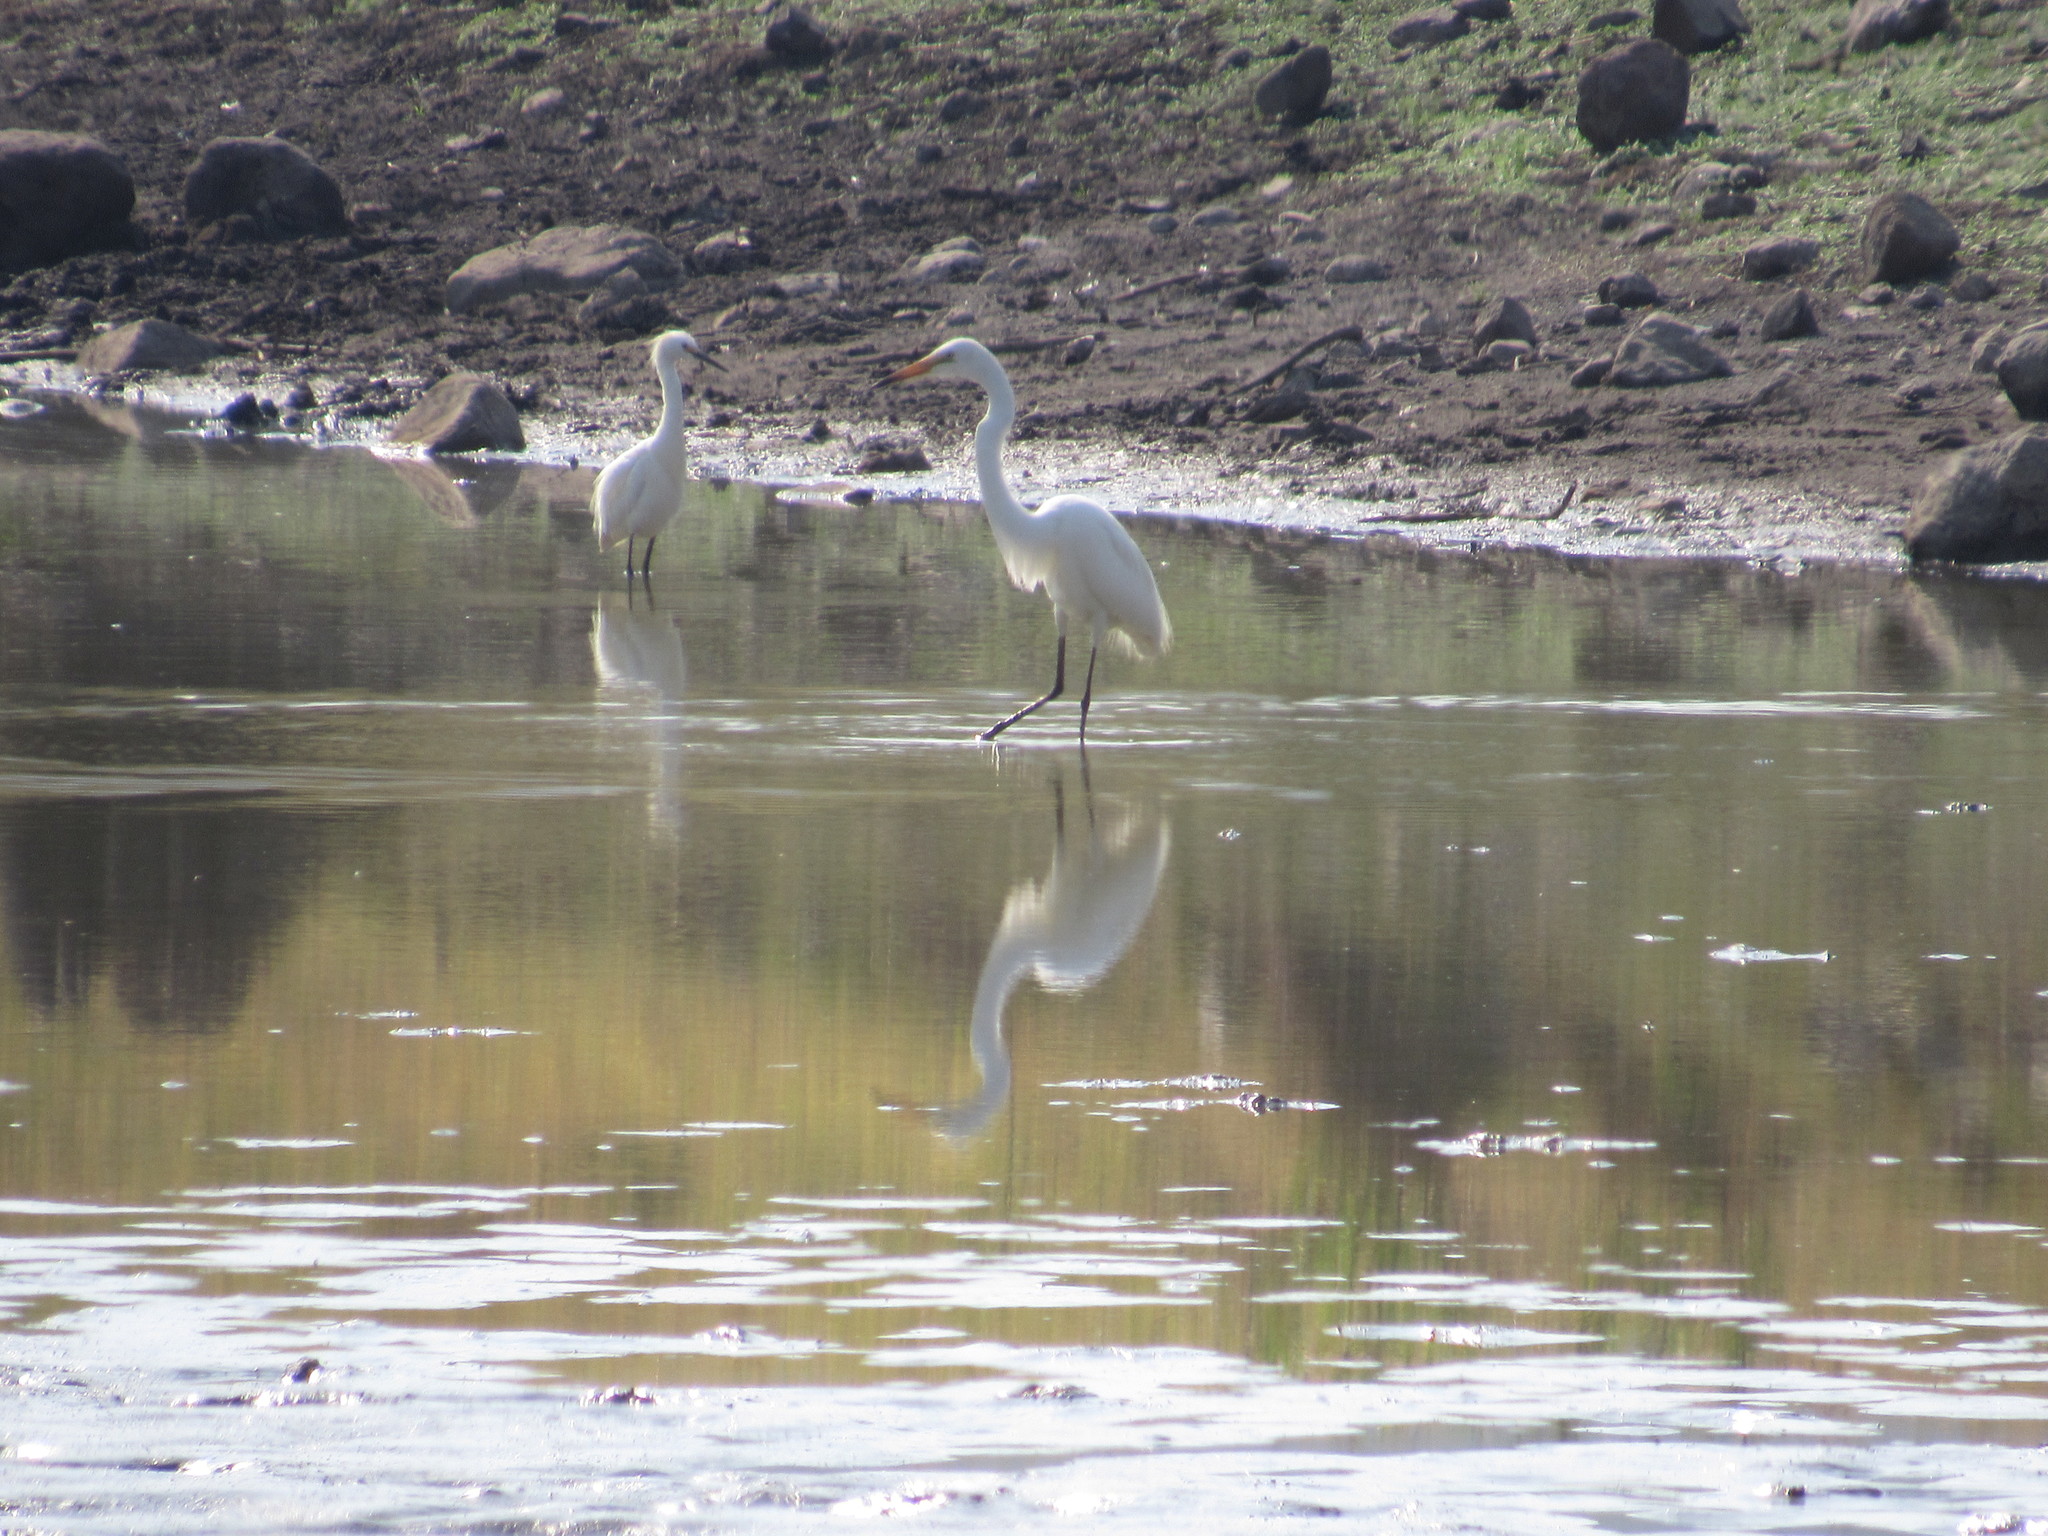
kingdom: Animalia
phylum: Chordata
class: Aves
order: Pelecaniformes
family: Ardeidae
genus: Ardea
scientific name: Ardea alba
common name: Great egret
